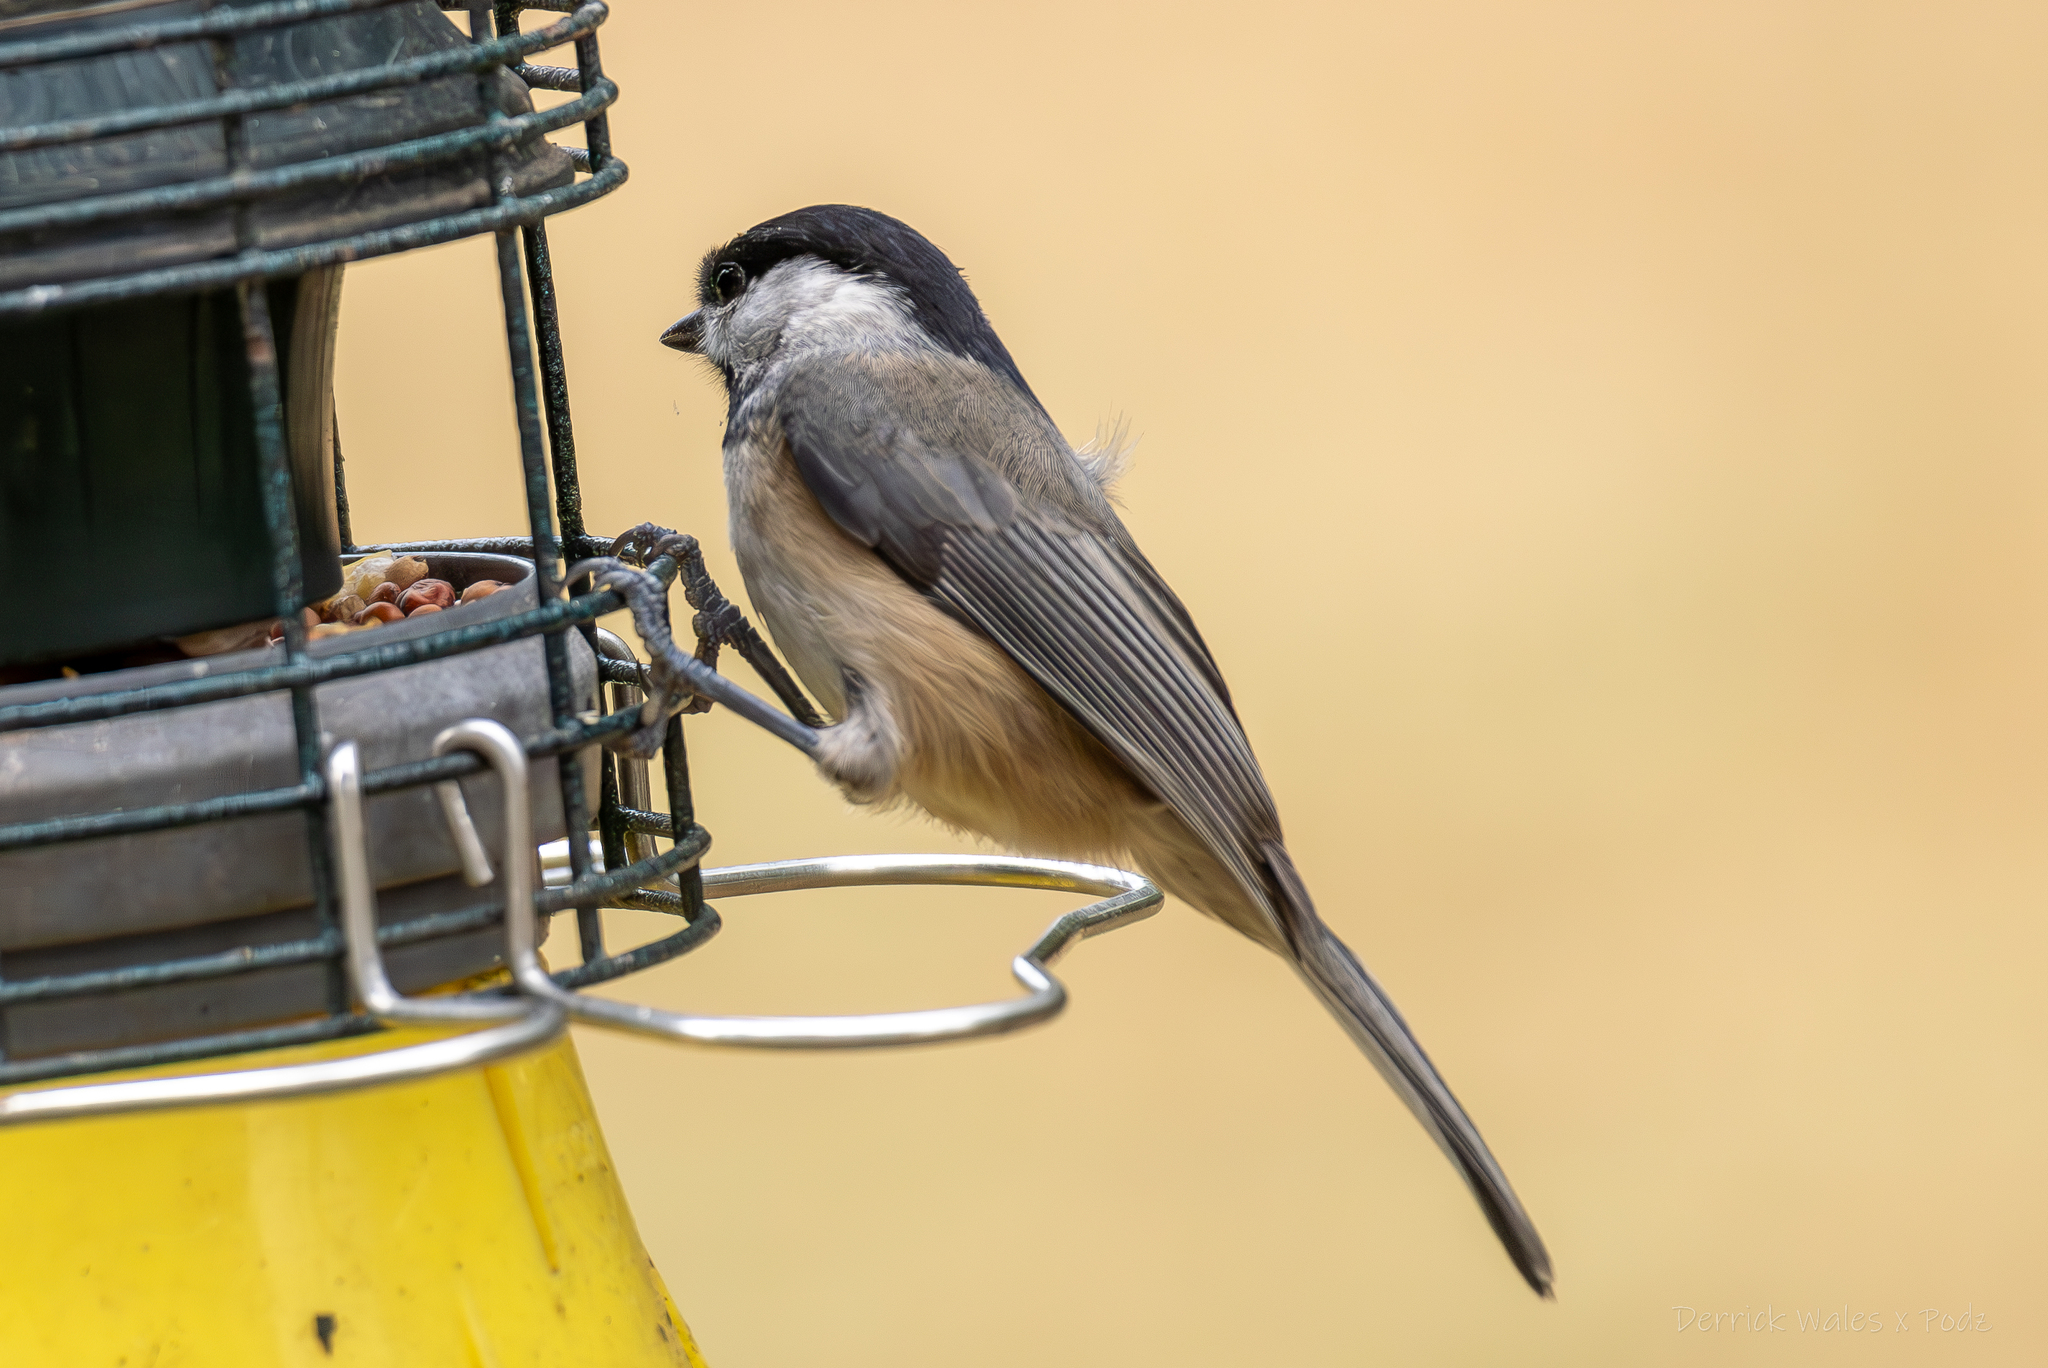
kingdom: Animalia
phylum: Chordata
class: Aves
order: Passeriformes
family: Paridae
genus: Poecile
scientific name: Poecile carolinensis
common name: Carolina chickadee
